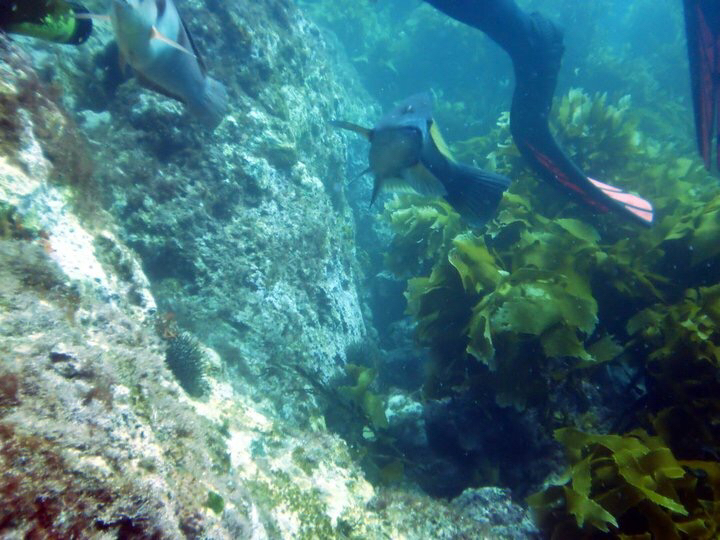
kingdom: Animalia
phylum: Chordata
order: Perciformes
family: Labridae
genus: Notolabrus
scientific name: Notolabrus inscriptus
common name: Green wrasse
